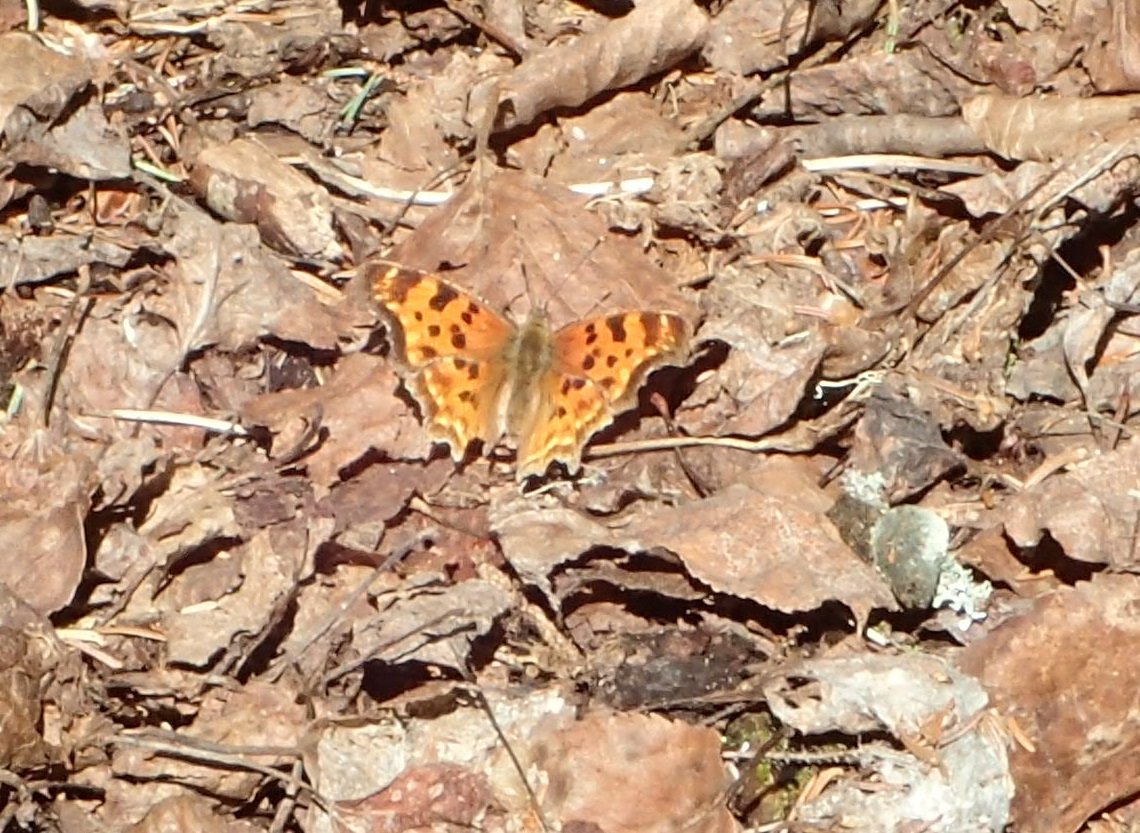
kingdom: Animalia
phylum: Arthropoda
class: Insecta
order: Lepidoptera
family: Nymphalidae
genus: Polygonia
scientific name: Polygonia satyrus
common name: Satyr angle wing
